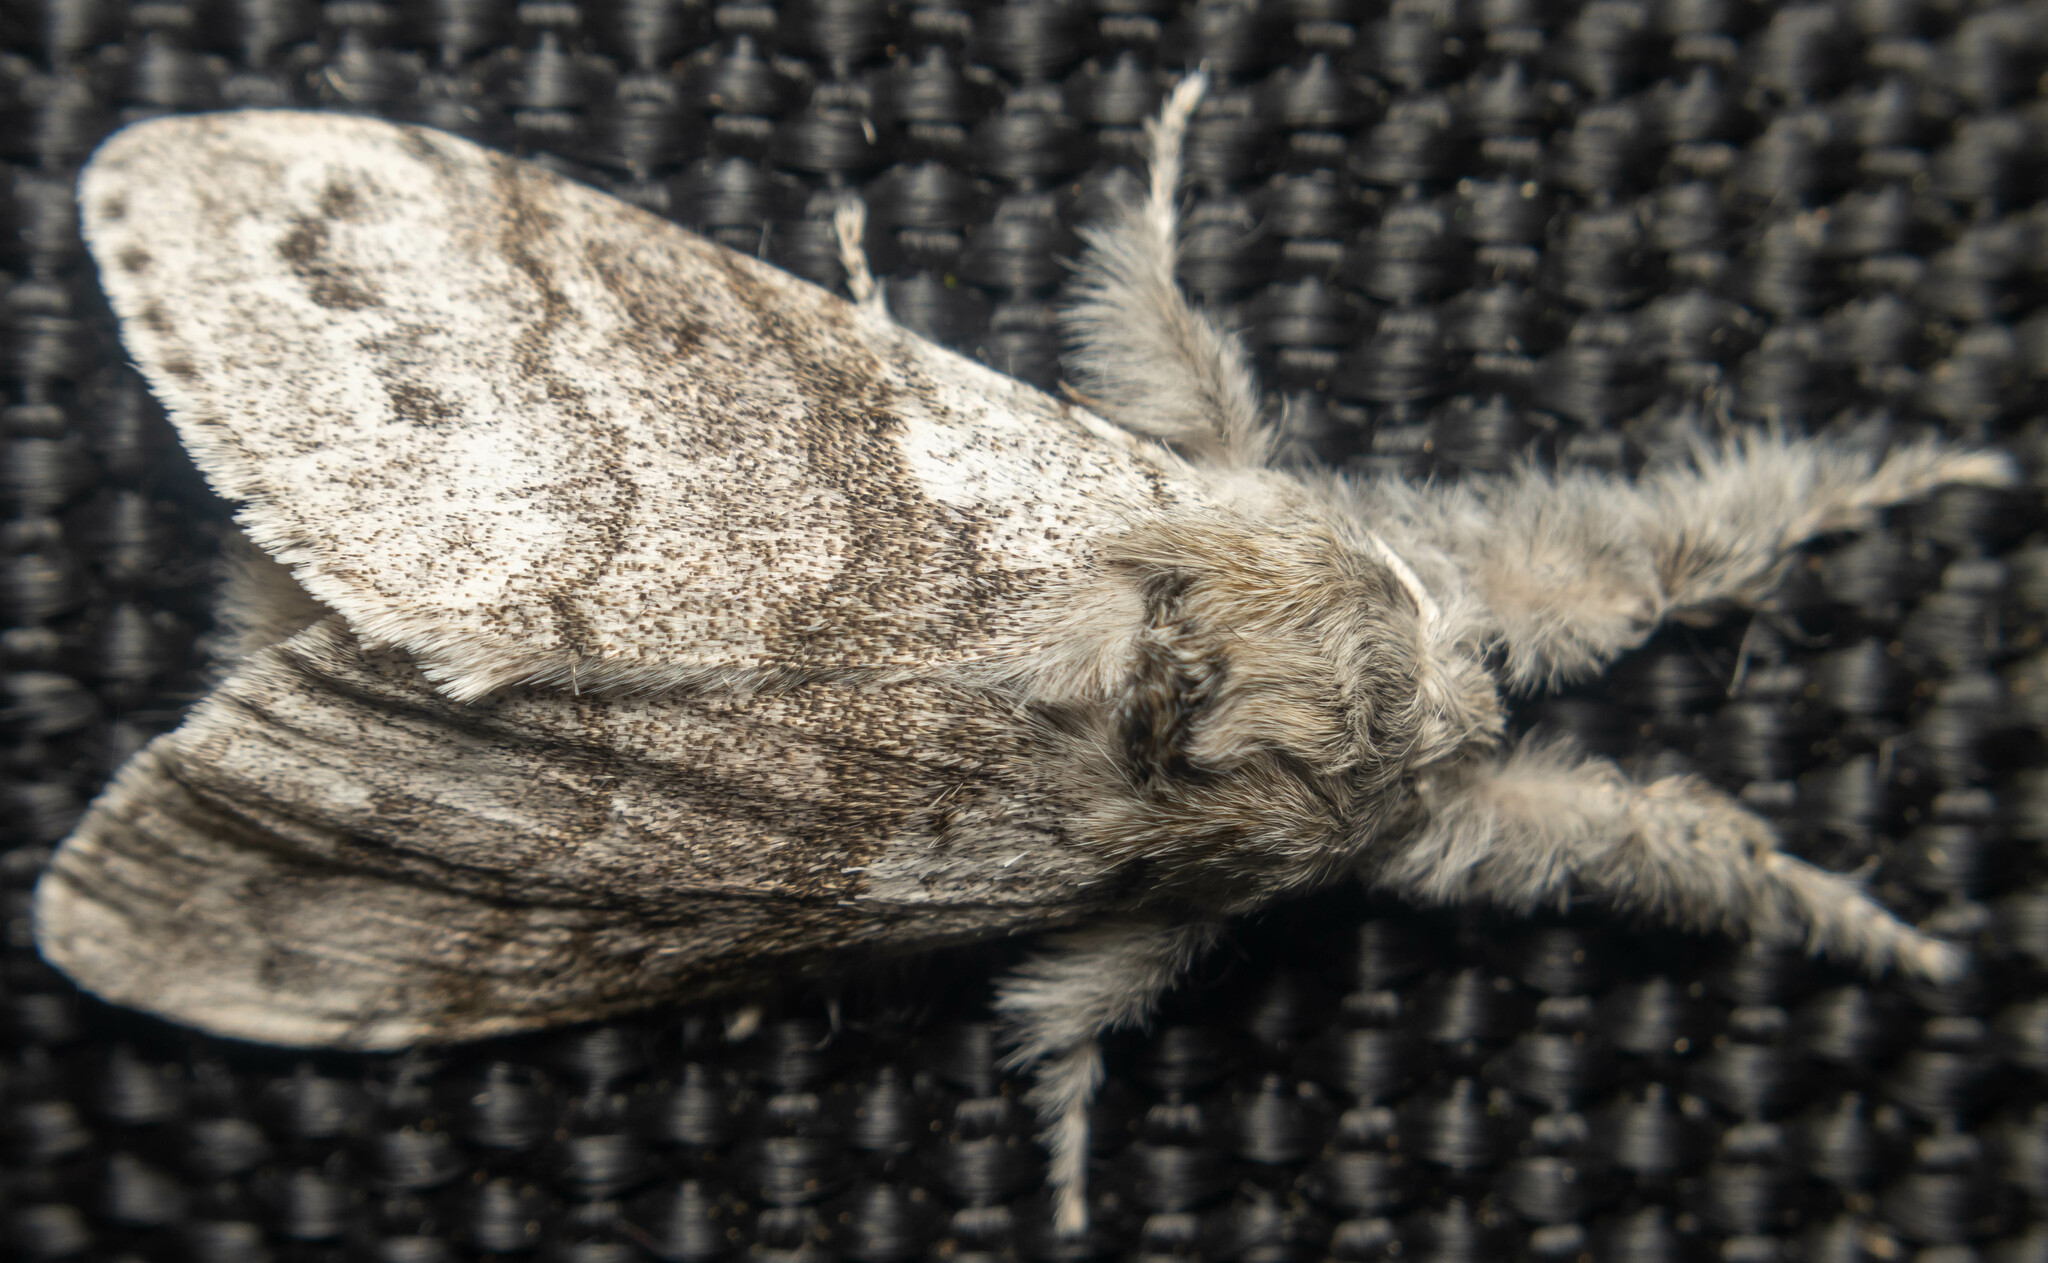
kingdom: Animalia
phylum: Arthropoda
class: Insecta
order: Lepidoptera
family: Erebidae
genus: Calliteara
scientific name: Calliteara pudibunda
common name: Pale tussock
